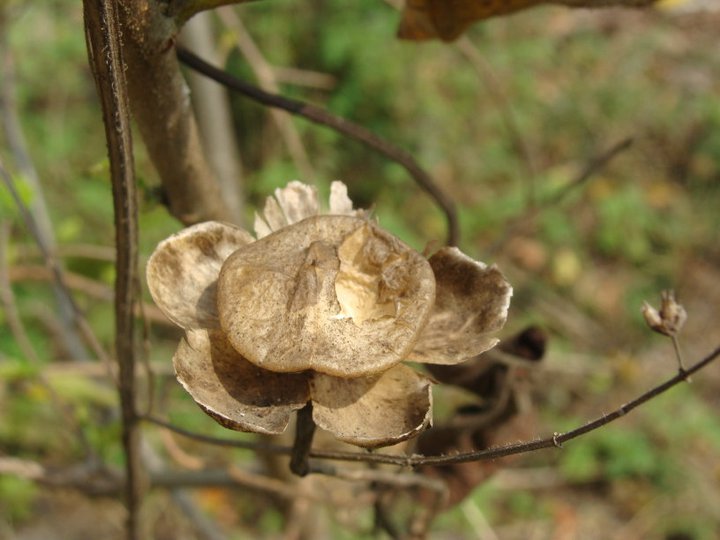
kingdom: Plantae
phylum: Tracheophyta
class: Magnoliopsida
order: Solanales
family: Convolvulaceae
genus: Operculina
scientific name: Operculina pinnatifida
